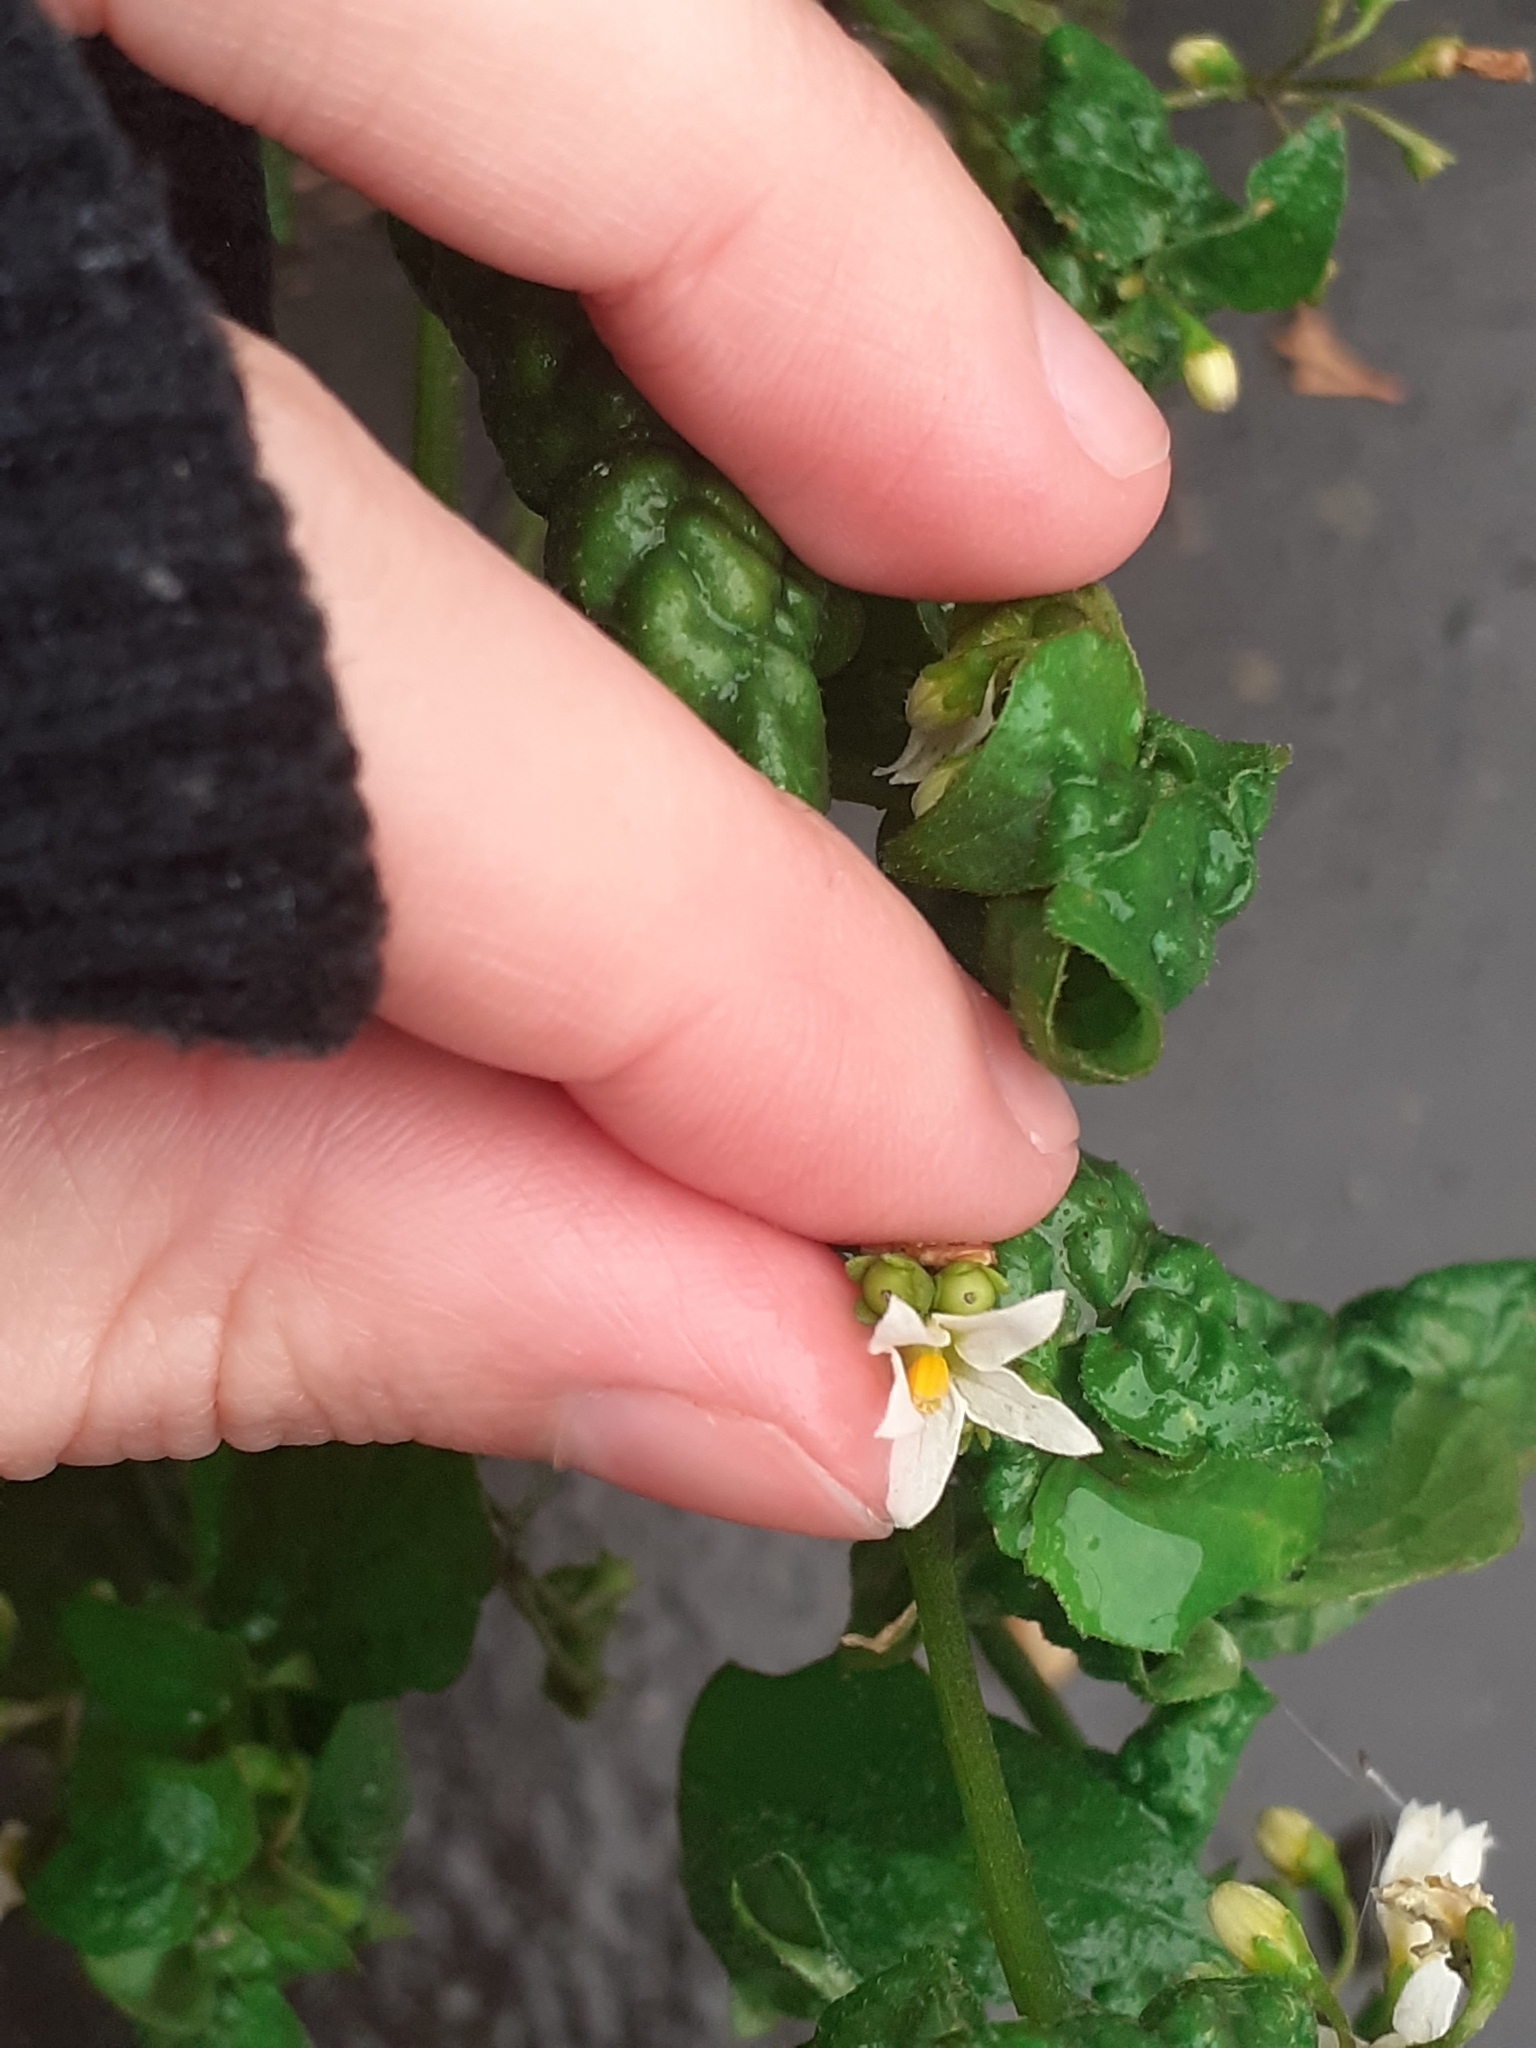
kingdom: Plantae
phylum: Tracheophyta
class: Magnoliopsida
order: Solanales
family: Solanaceae
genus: Solanum
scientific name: Solanum nigrum
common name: Black nightshade
